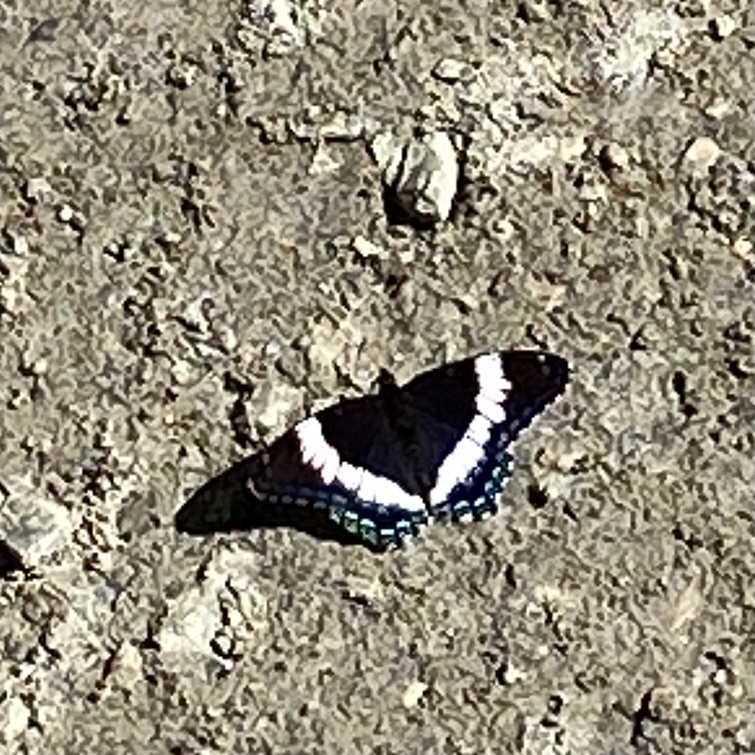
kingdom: Animalia
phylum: Arthropoda
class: Insecta
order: Lepidoptera
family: Nymphalidae
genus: Limenitis
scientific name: Limenitis arthemis
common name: Red-spotted admiral
